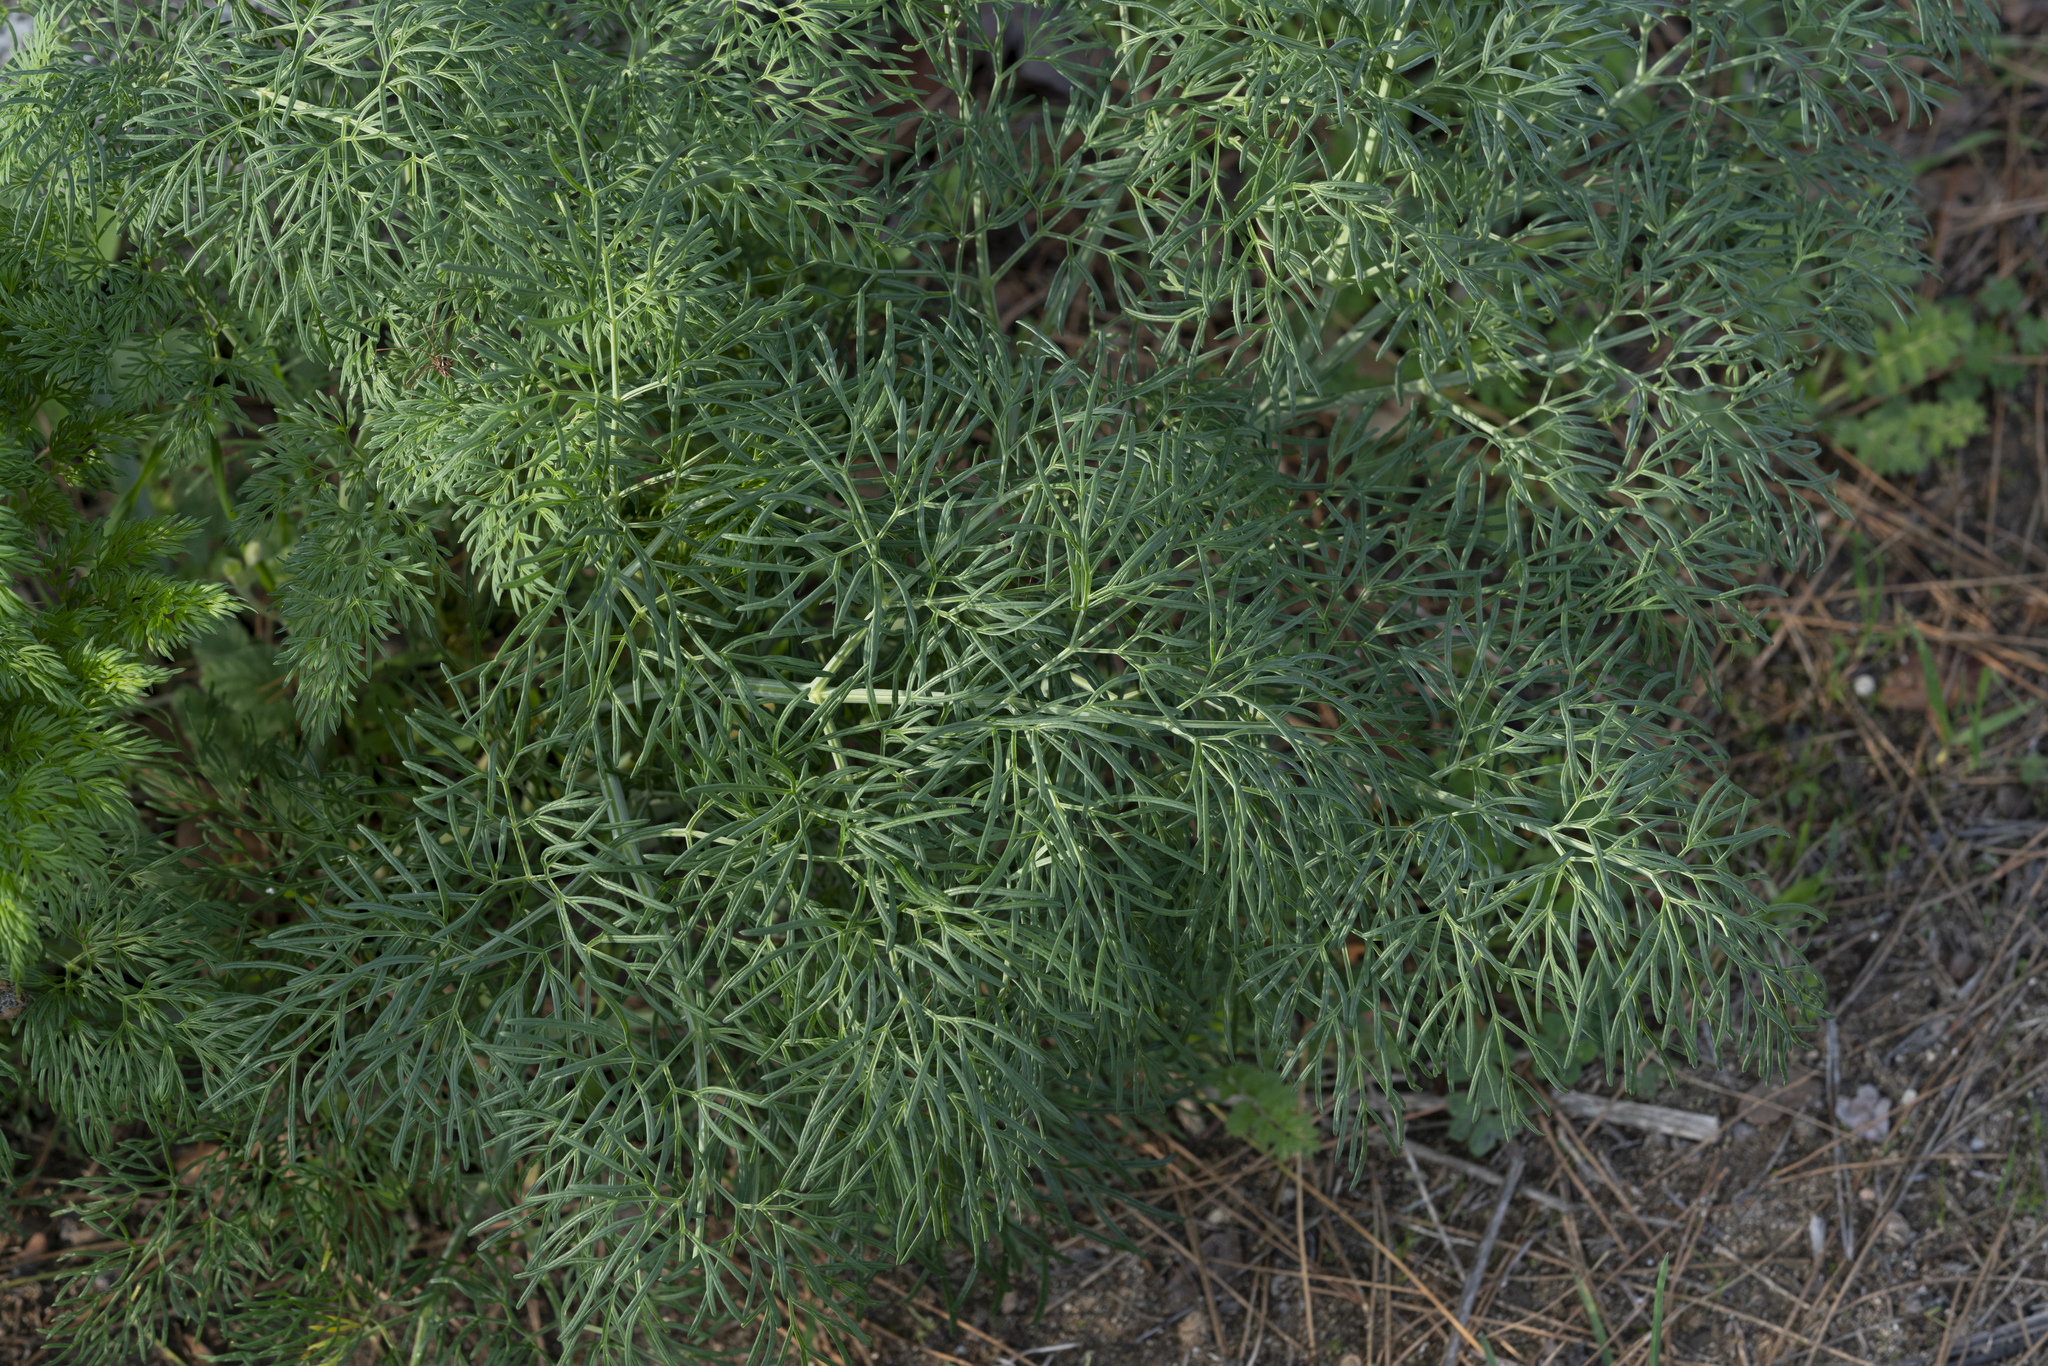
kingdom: Plantae
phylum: Tracheophyta
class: Magnoliopsida
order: Apiales
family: Apiaceae
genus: Ferula
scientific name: Ferula glauca
